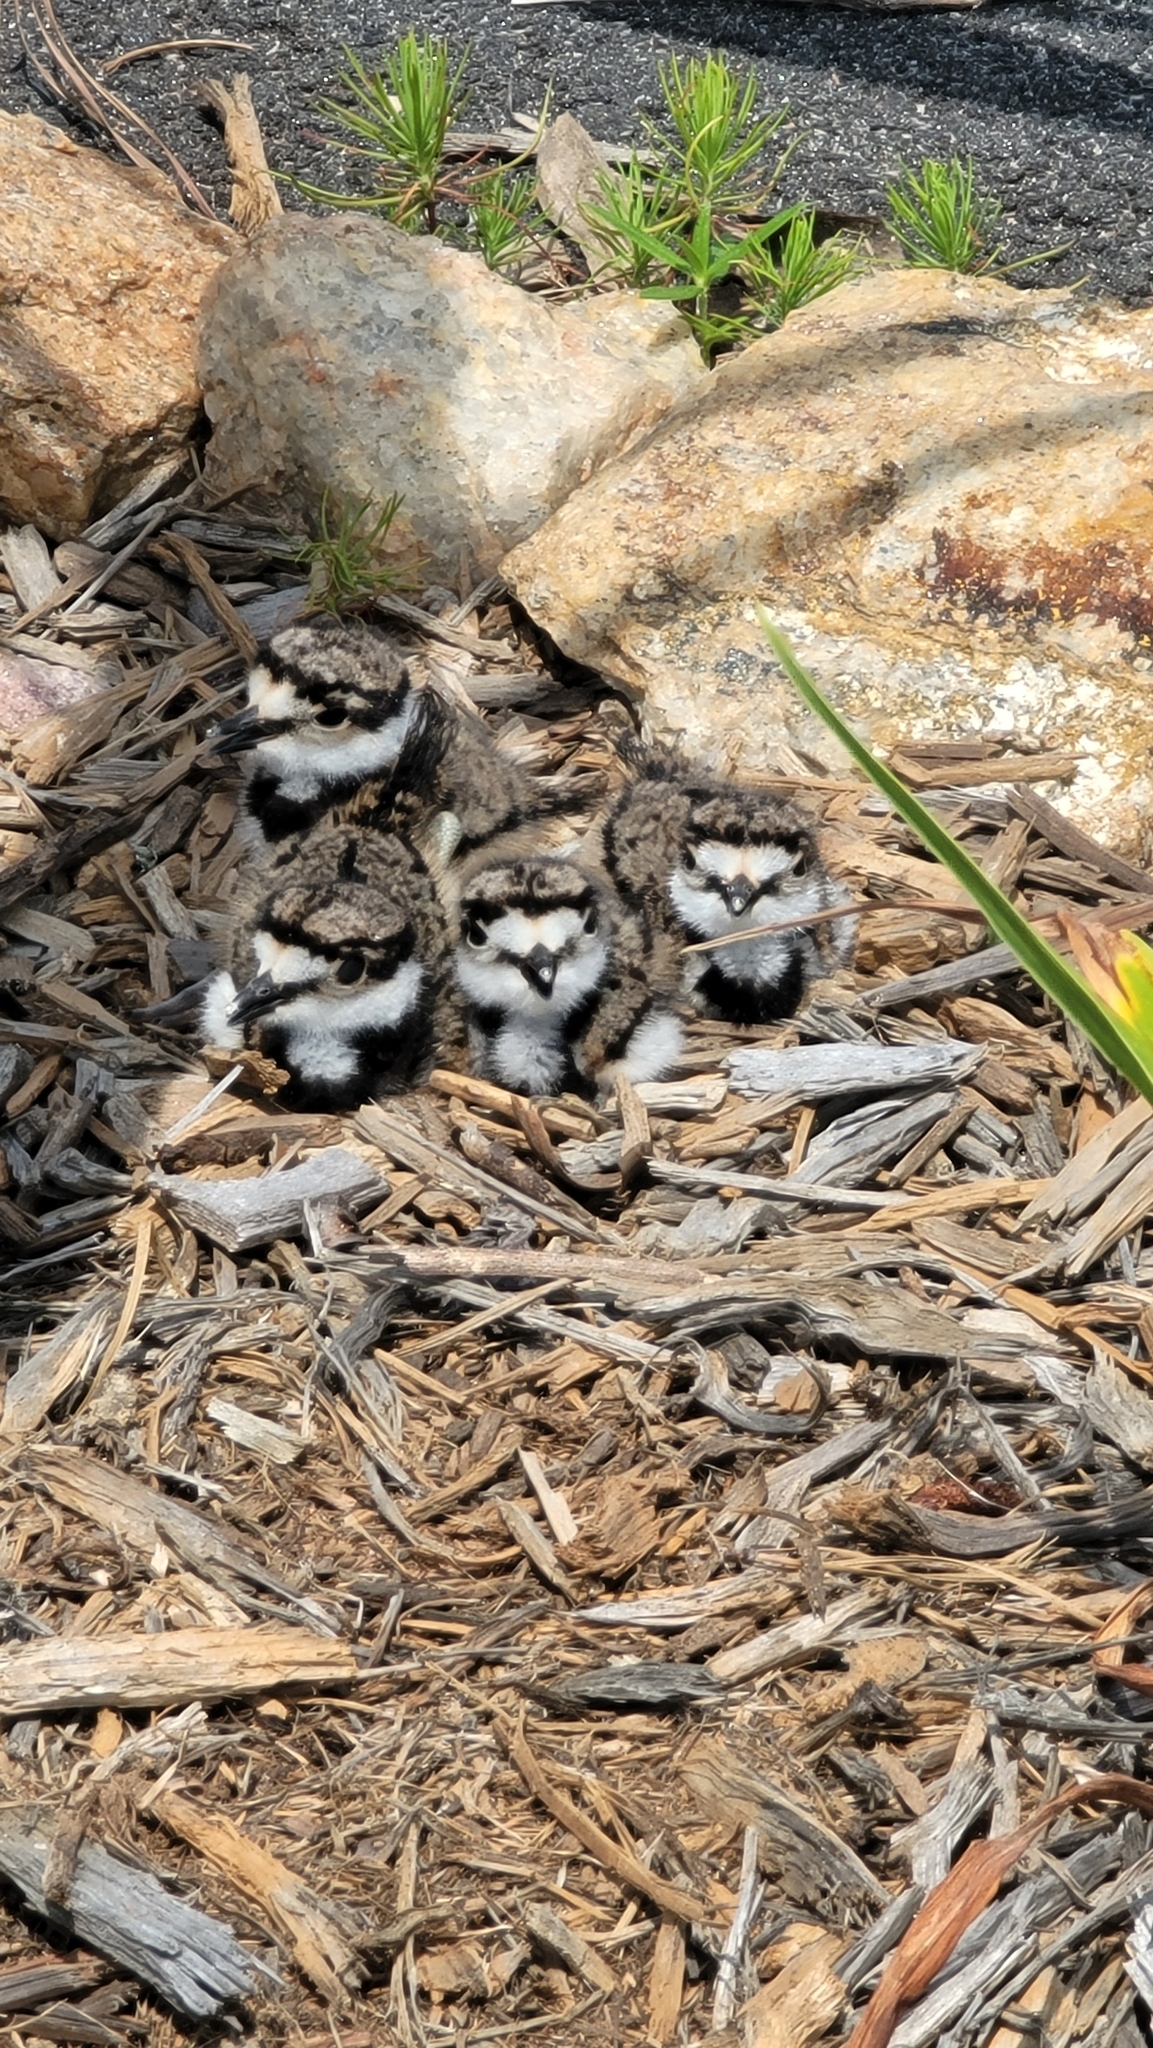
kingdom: Animalia
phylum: Chordata
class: Aves
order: Charadriiformes
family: Charadriidae
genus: Charadrius
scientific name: Charadrius vociferus
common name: Killdeer
